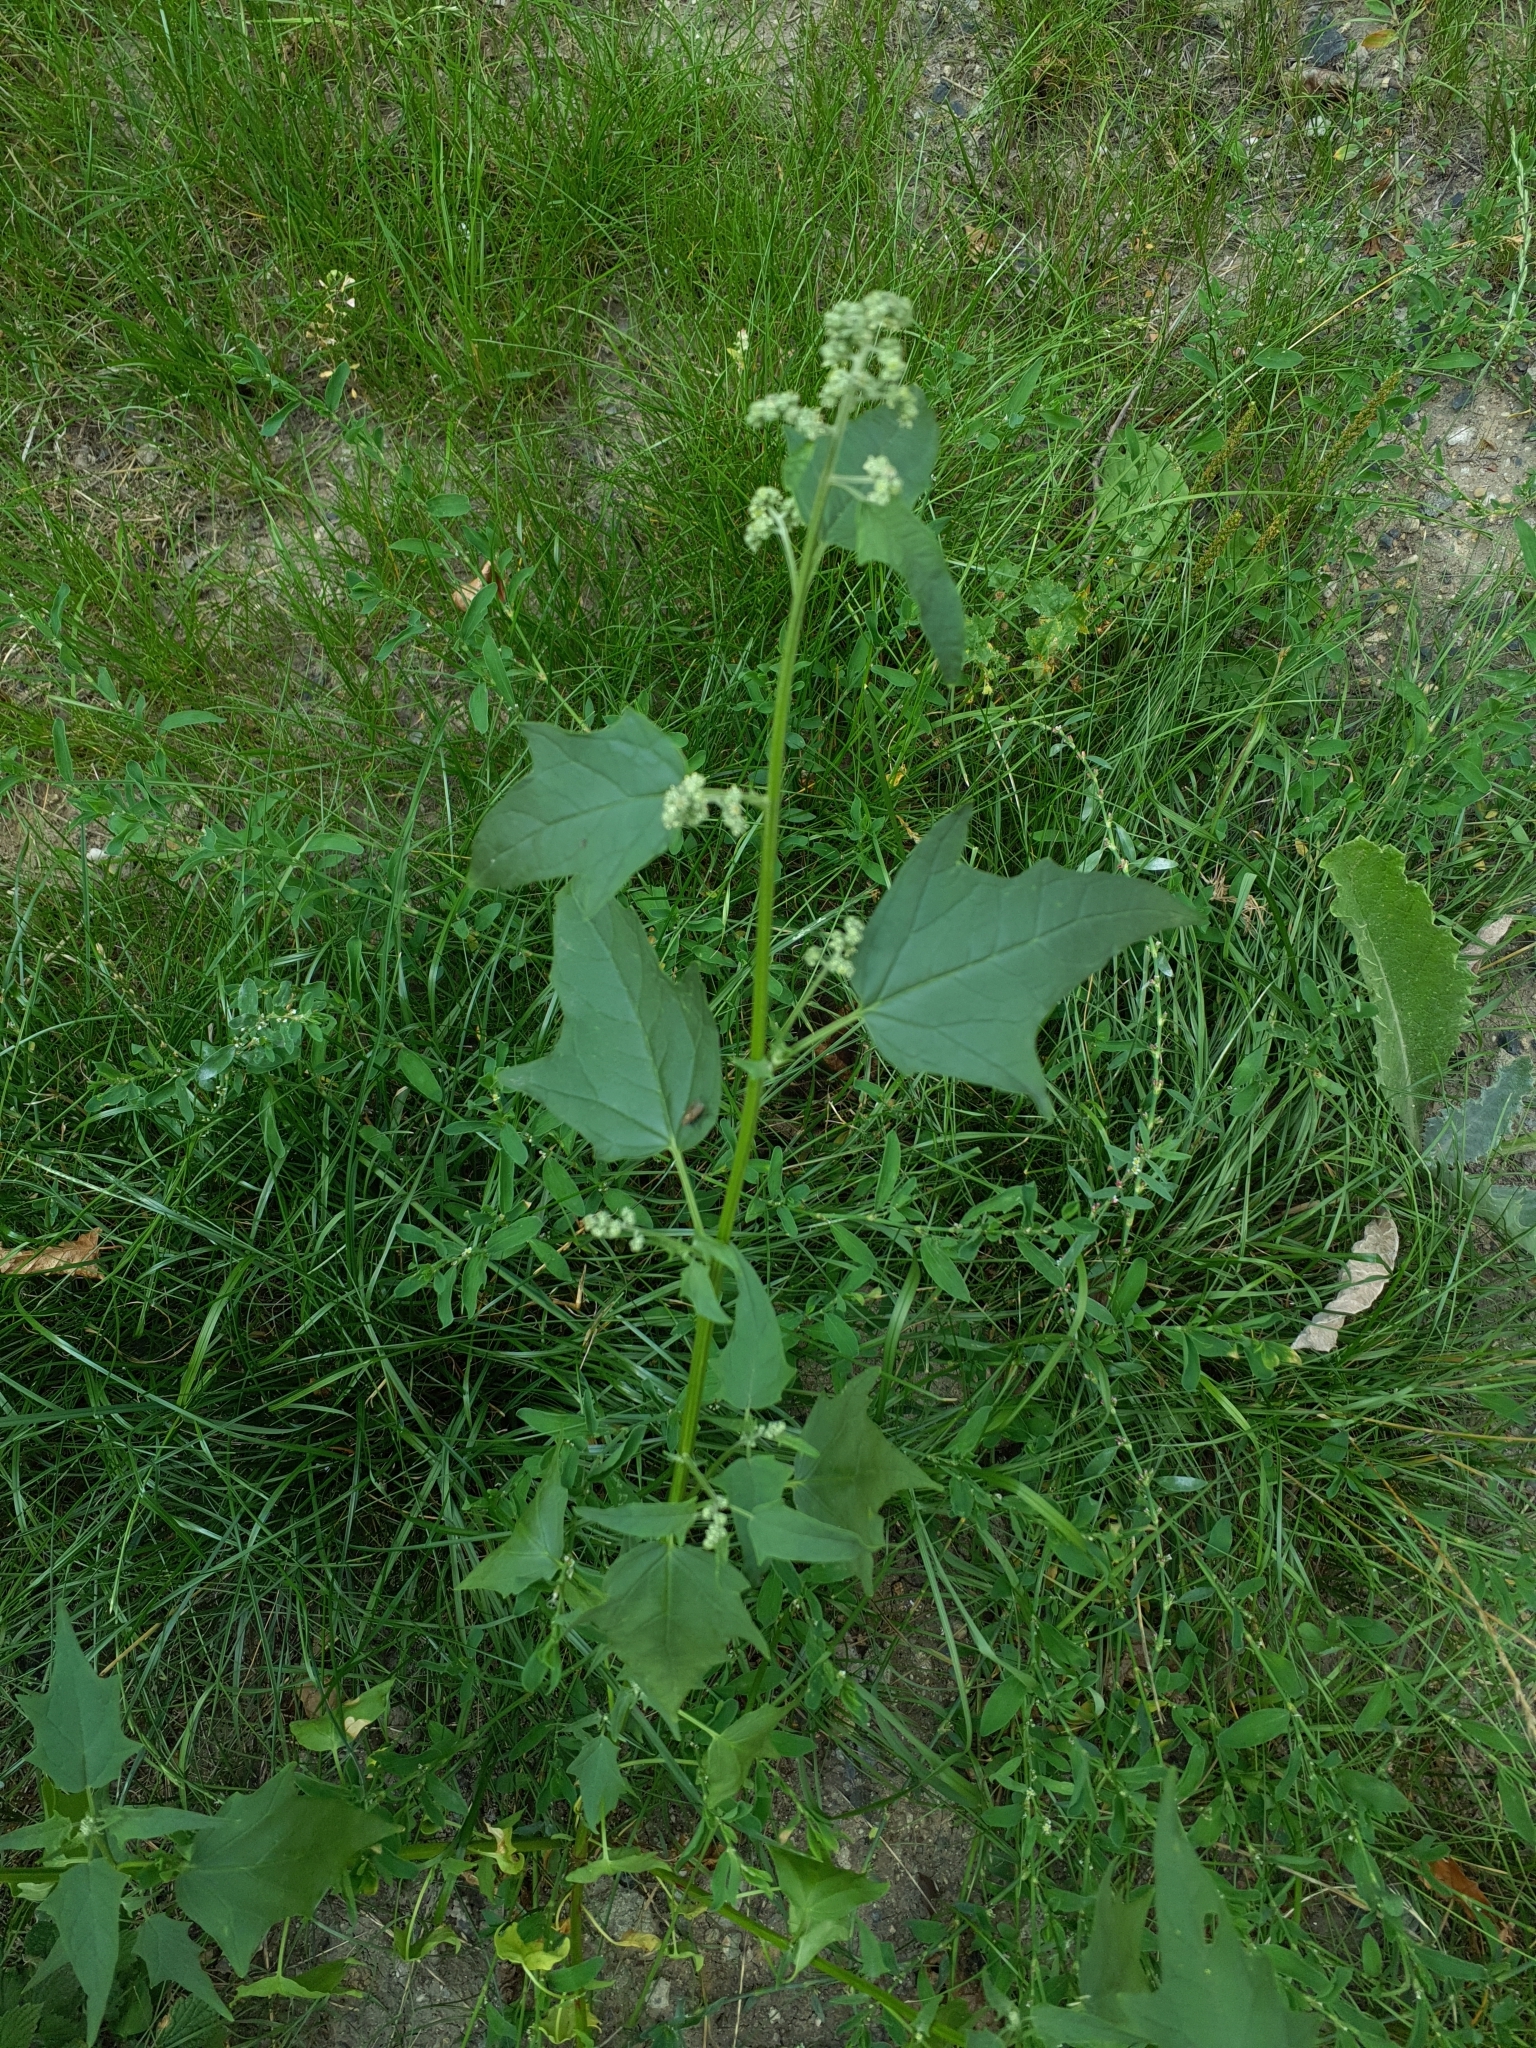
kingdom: Plantae
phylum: Tracheophyta
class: Magnoliopsida
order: Caryophyllales
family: Amaranthaceae
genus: Chenopodiastrum
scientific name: Chenopodiastrum hybridum
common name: Mapleleaf goosefoot
